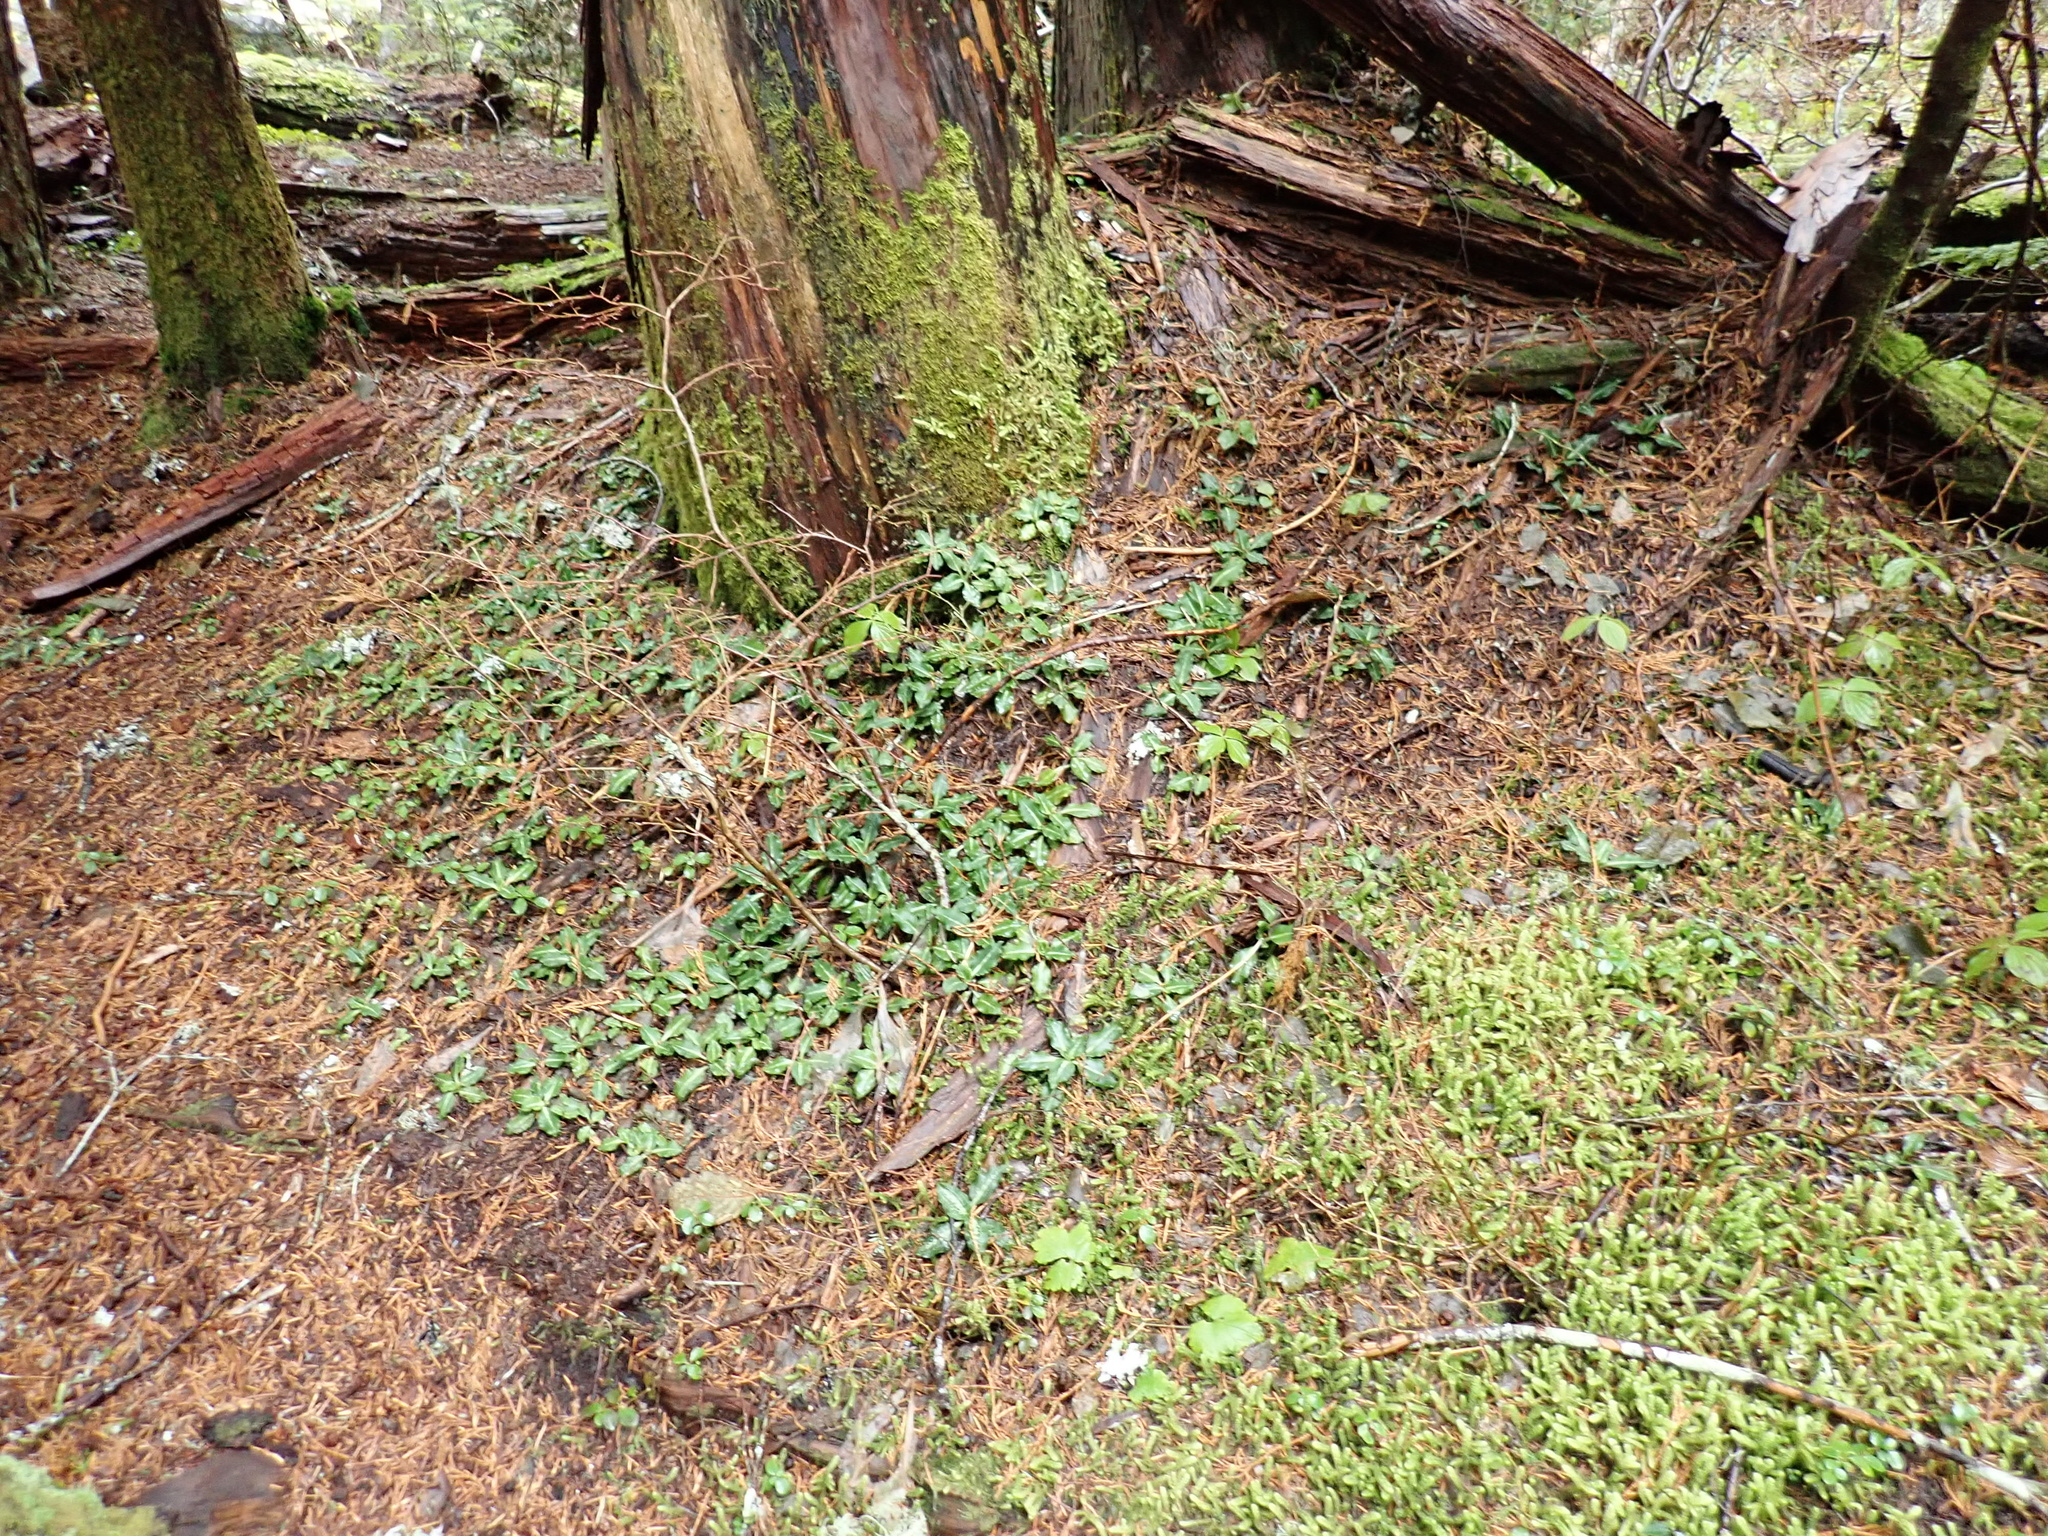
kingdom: Plantae
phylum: Tracheophyta
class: Liliopsida
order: Asparagales
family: Orchidaceae
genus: Goodyera
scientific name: Goodyera oblongifolia
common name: Giant rattlesnake-plantain
